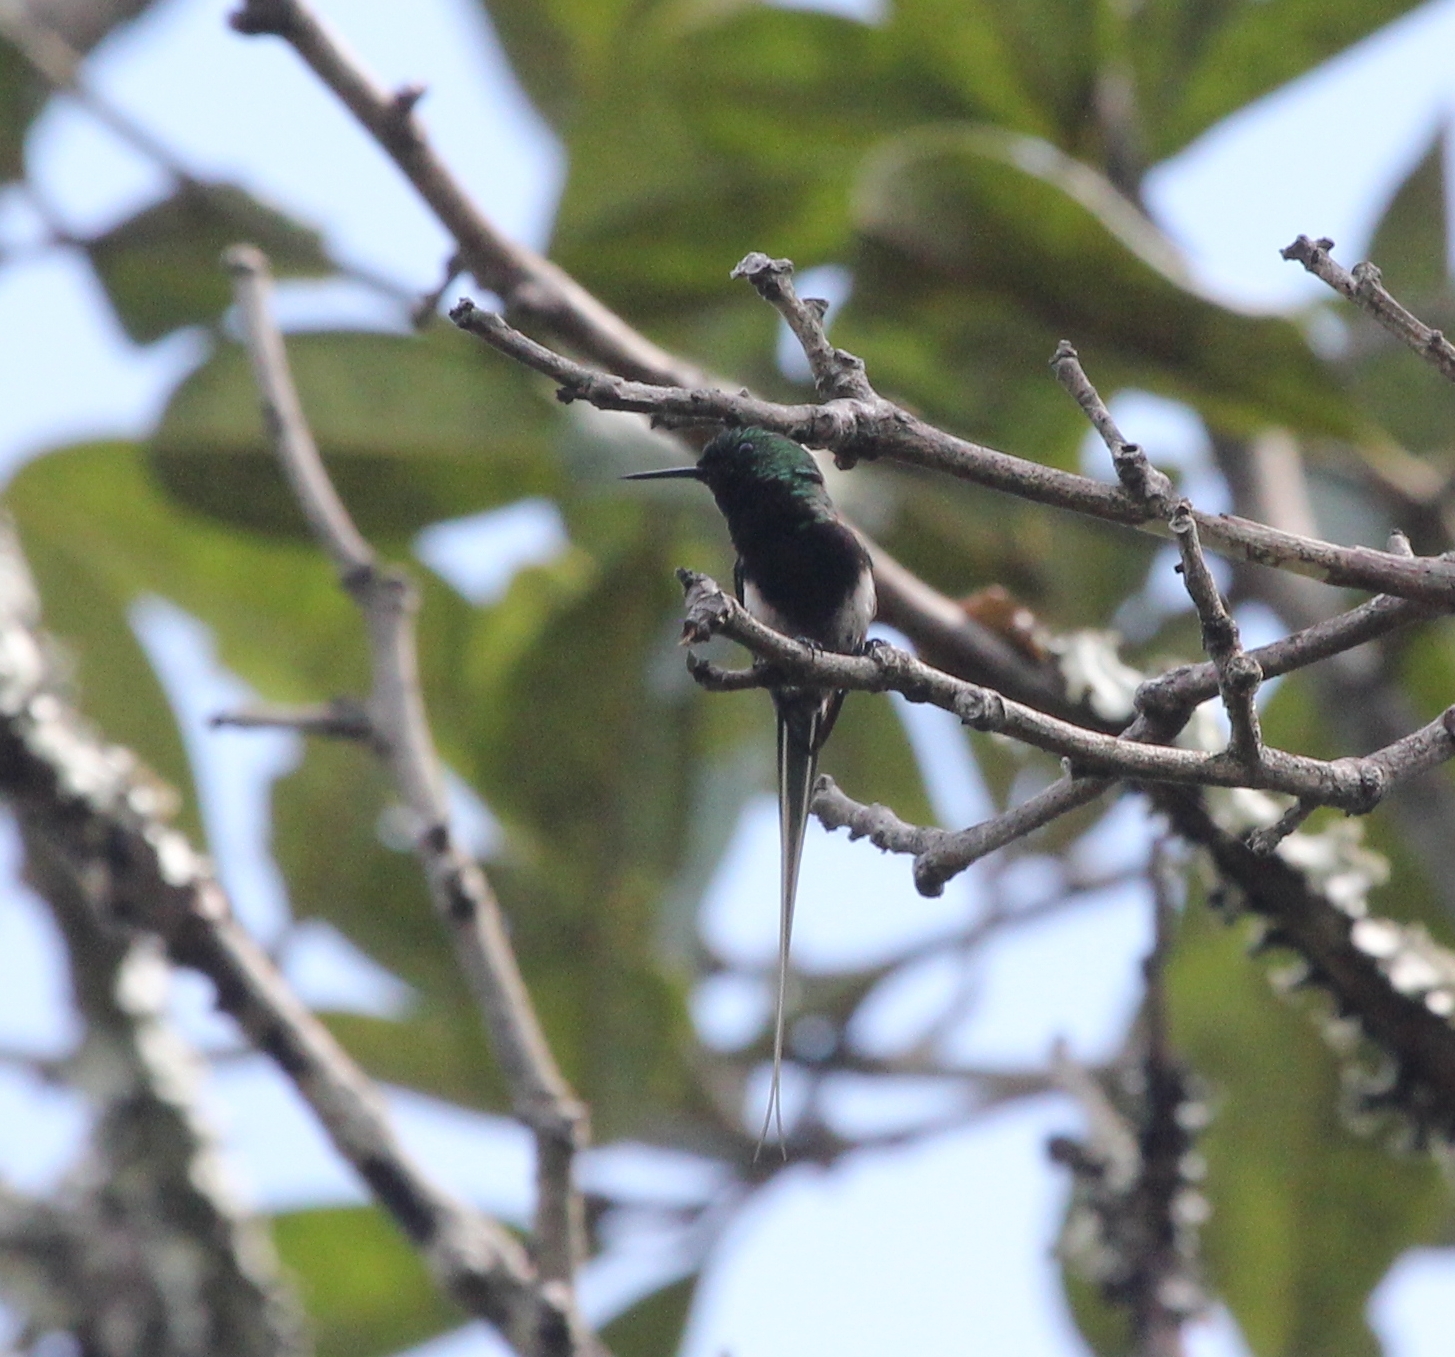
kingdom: Animalia
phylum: Chordata
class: Aves
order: Apodiformes
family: Trochilidae
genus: Discosura
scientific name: Discosura langsdorffi
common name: Black-bellied thorntail
